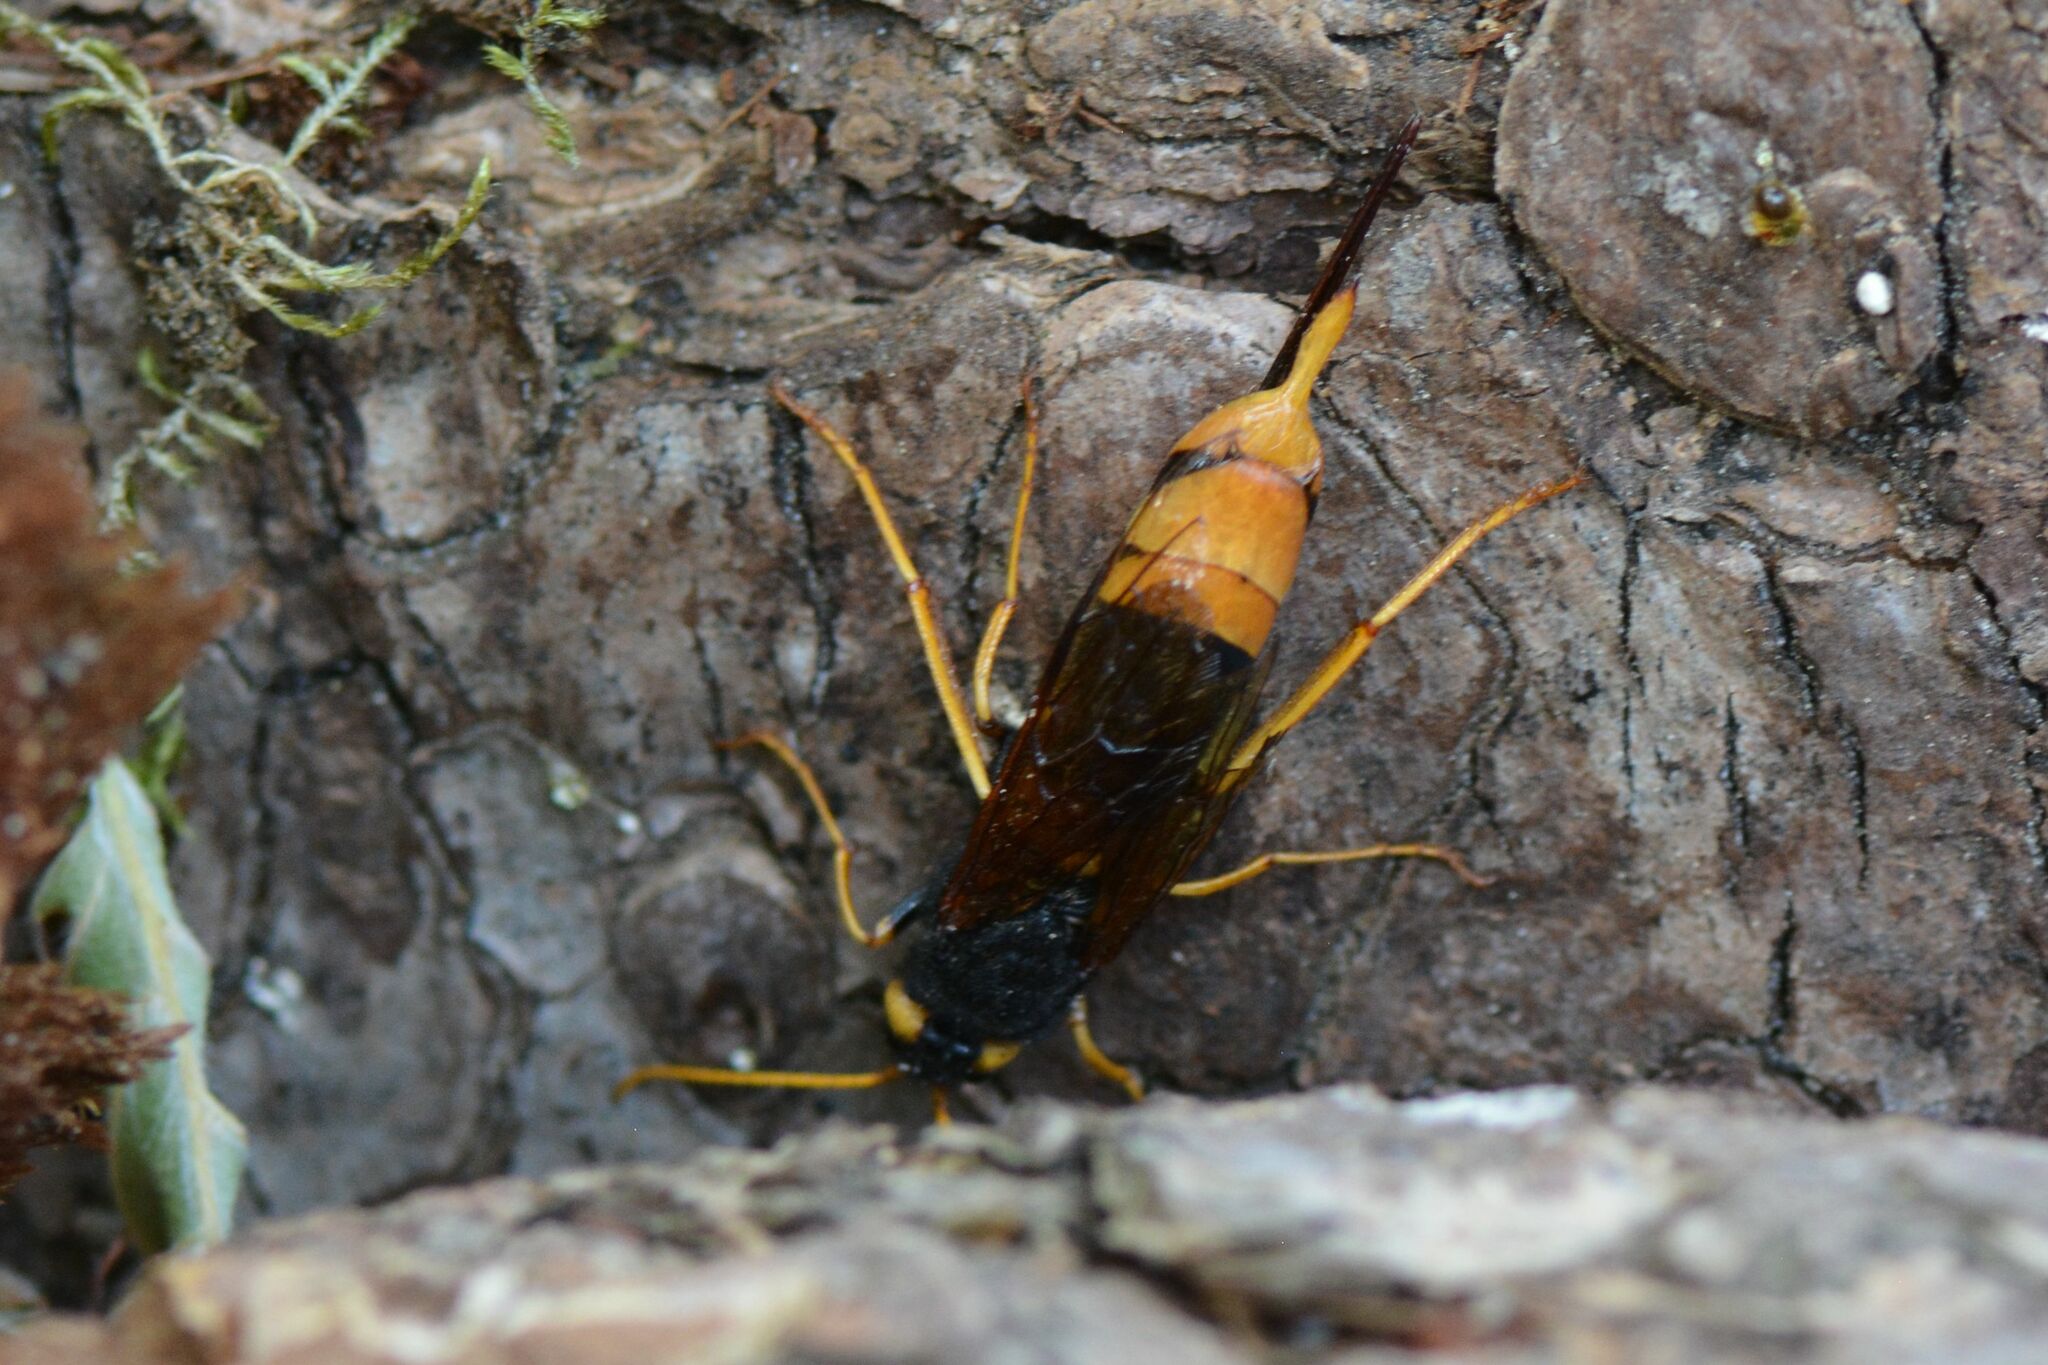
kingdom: Animalia
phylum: Arthropoda
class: Insecta
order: Hymenoptera
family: Siricidae
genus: Urocerus
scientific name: Urocerus gigas
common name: Giant woodwasp
